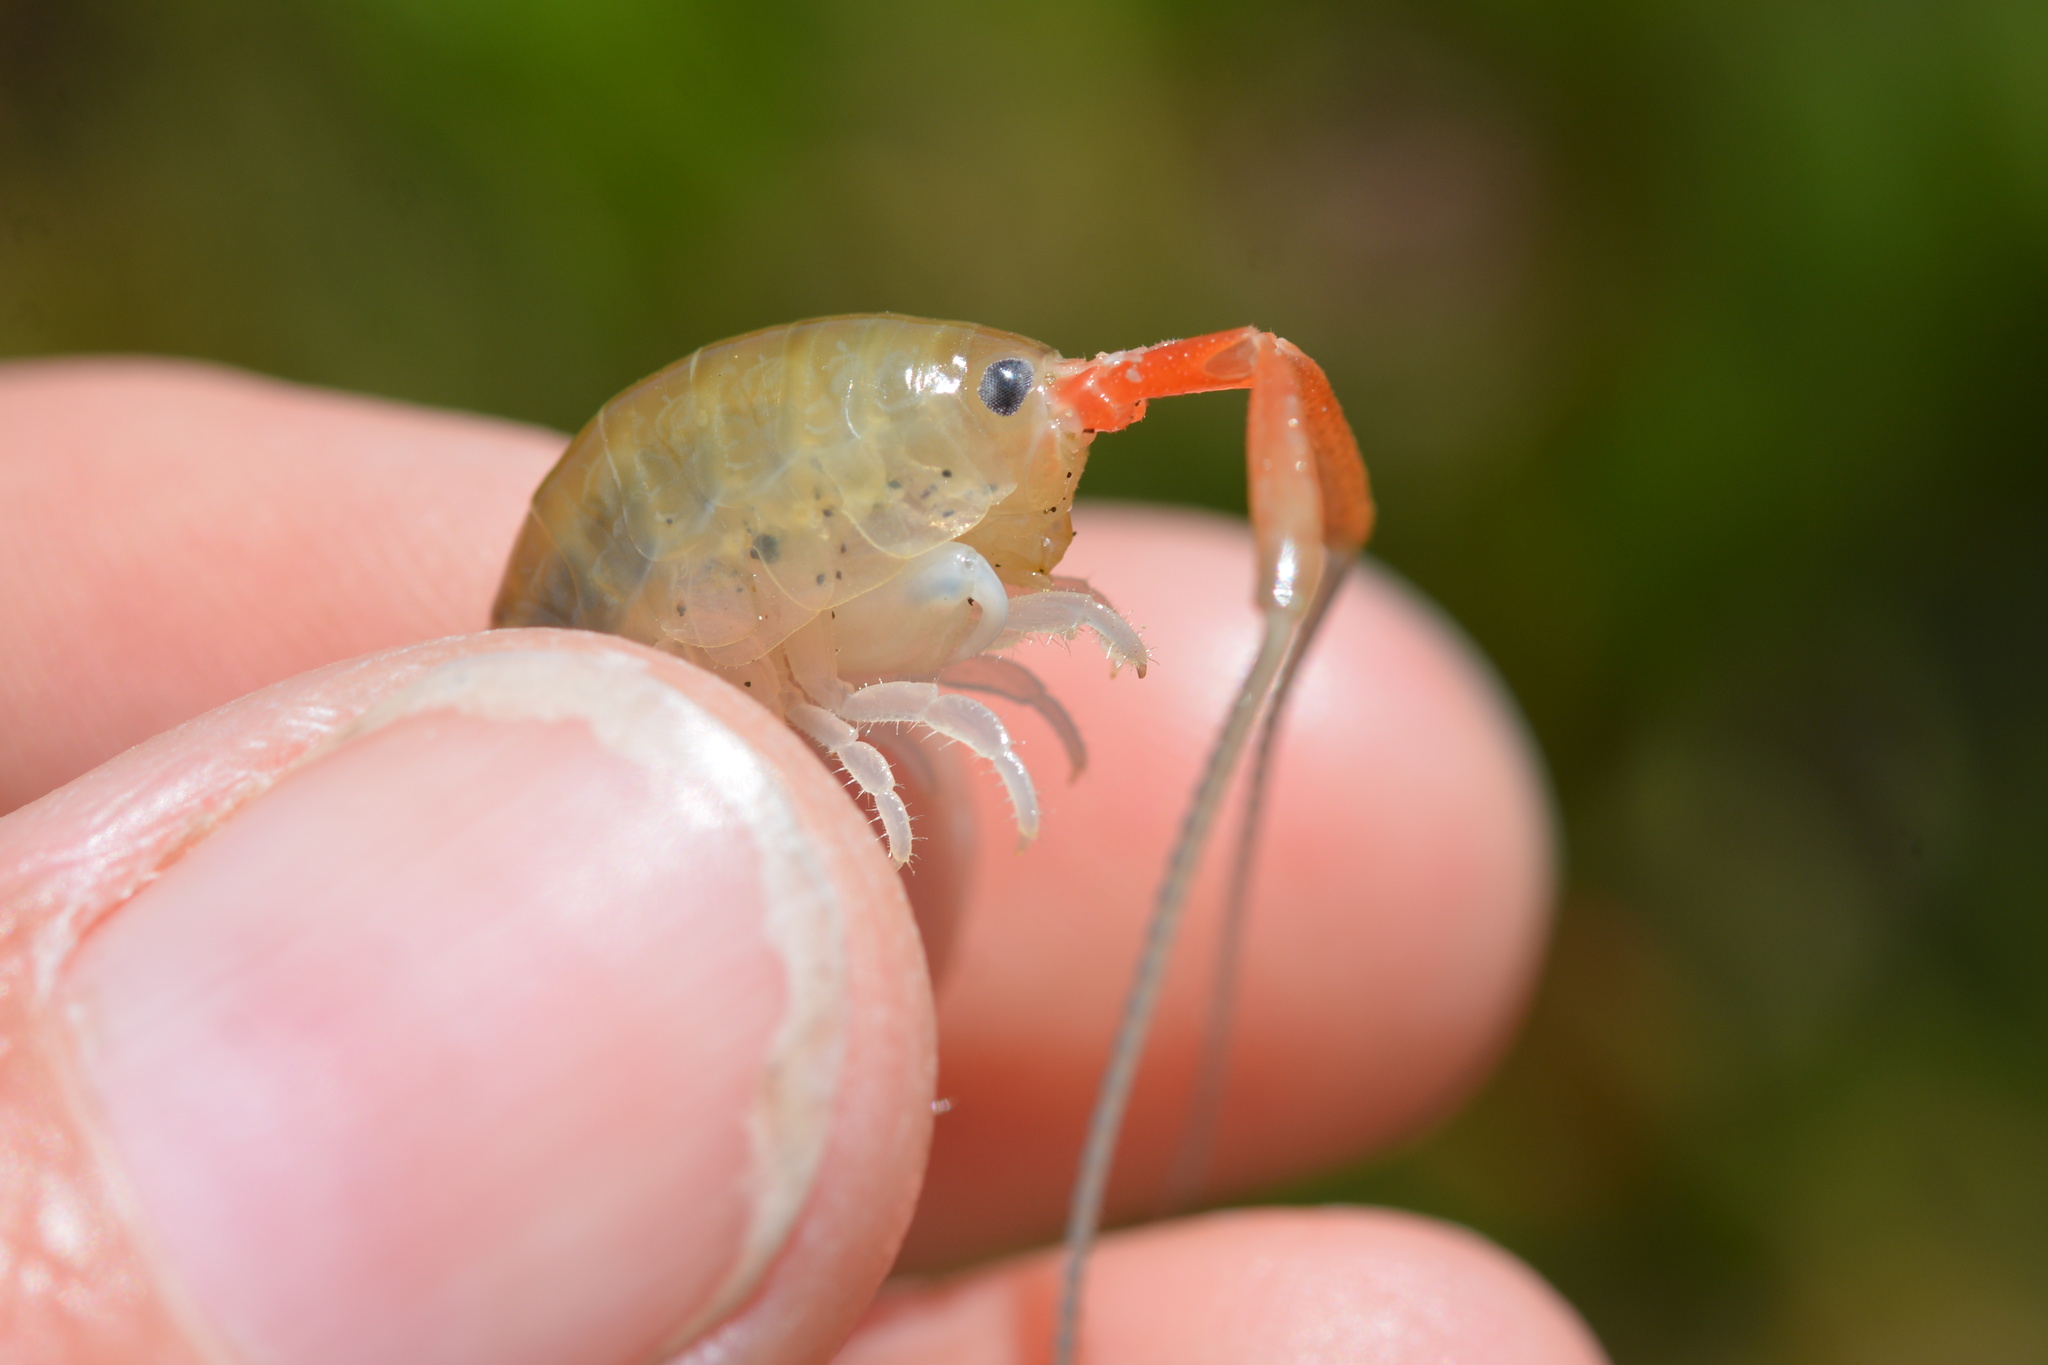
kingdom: Animalia
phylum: Arthropoda
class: Malacostraca
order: Amphipoda
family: Talitridae
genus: Megalorchestia
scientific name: Megalorchestia californiana
